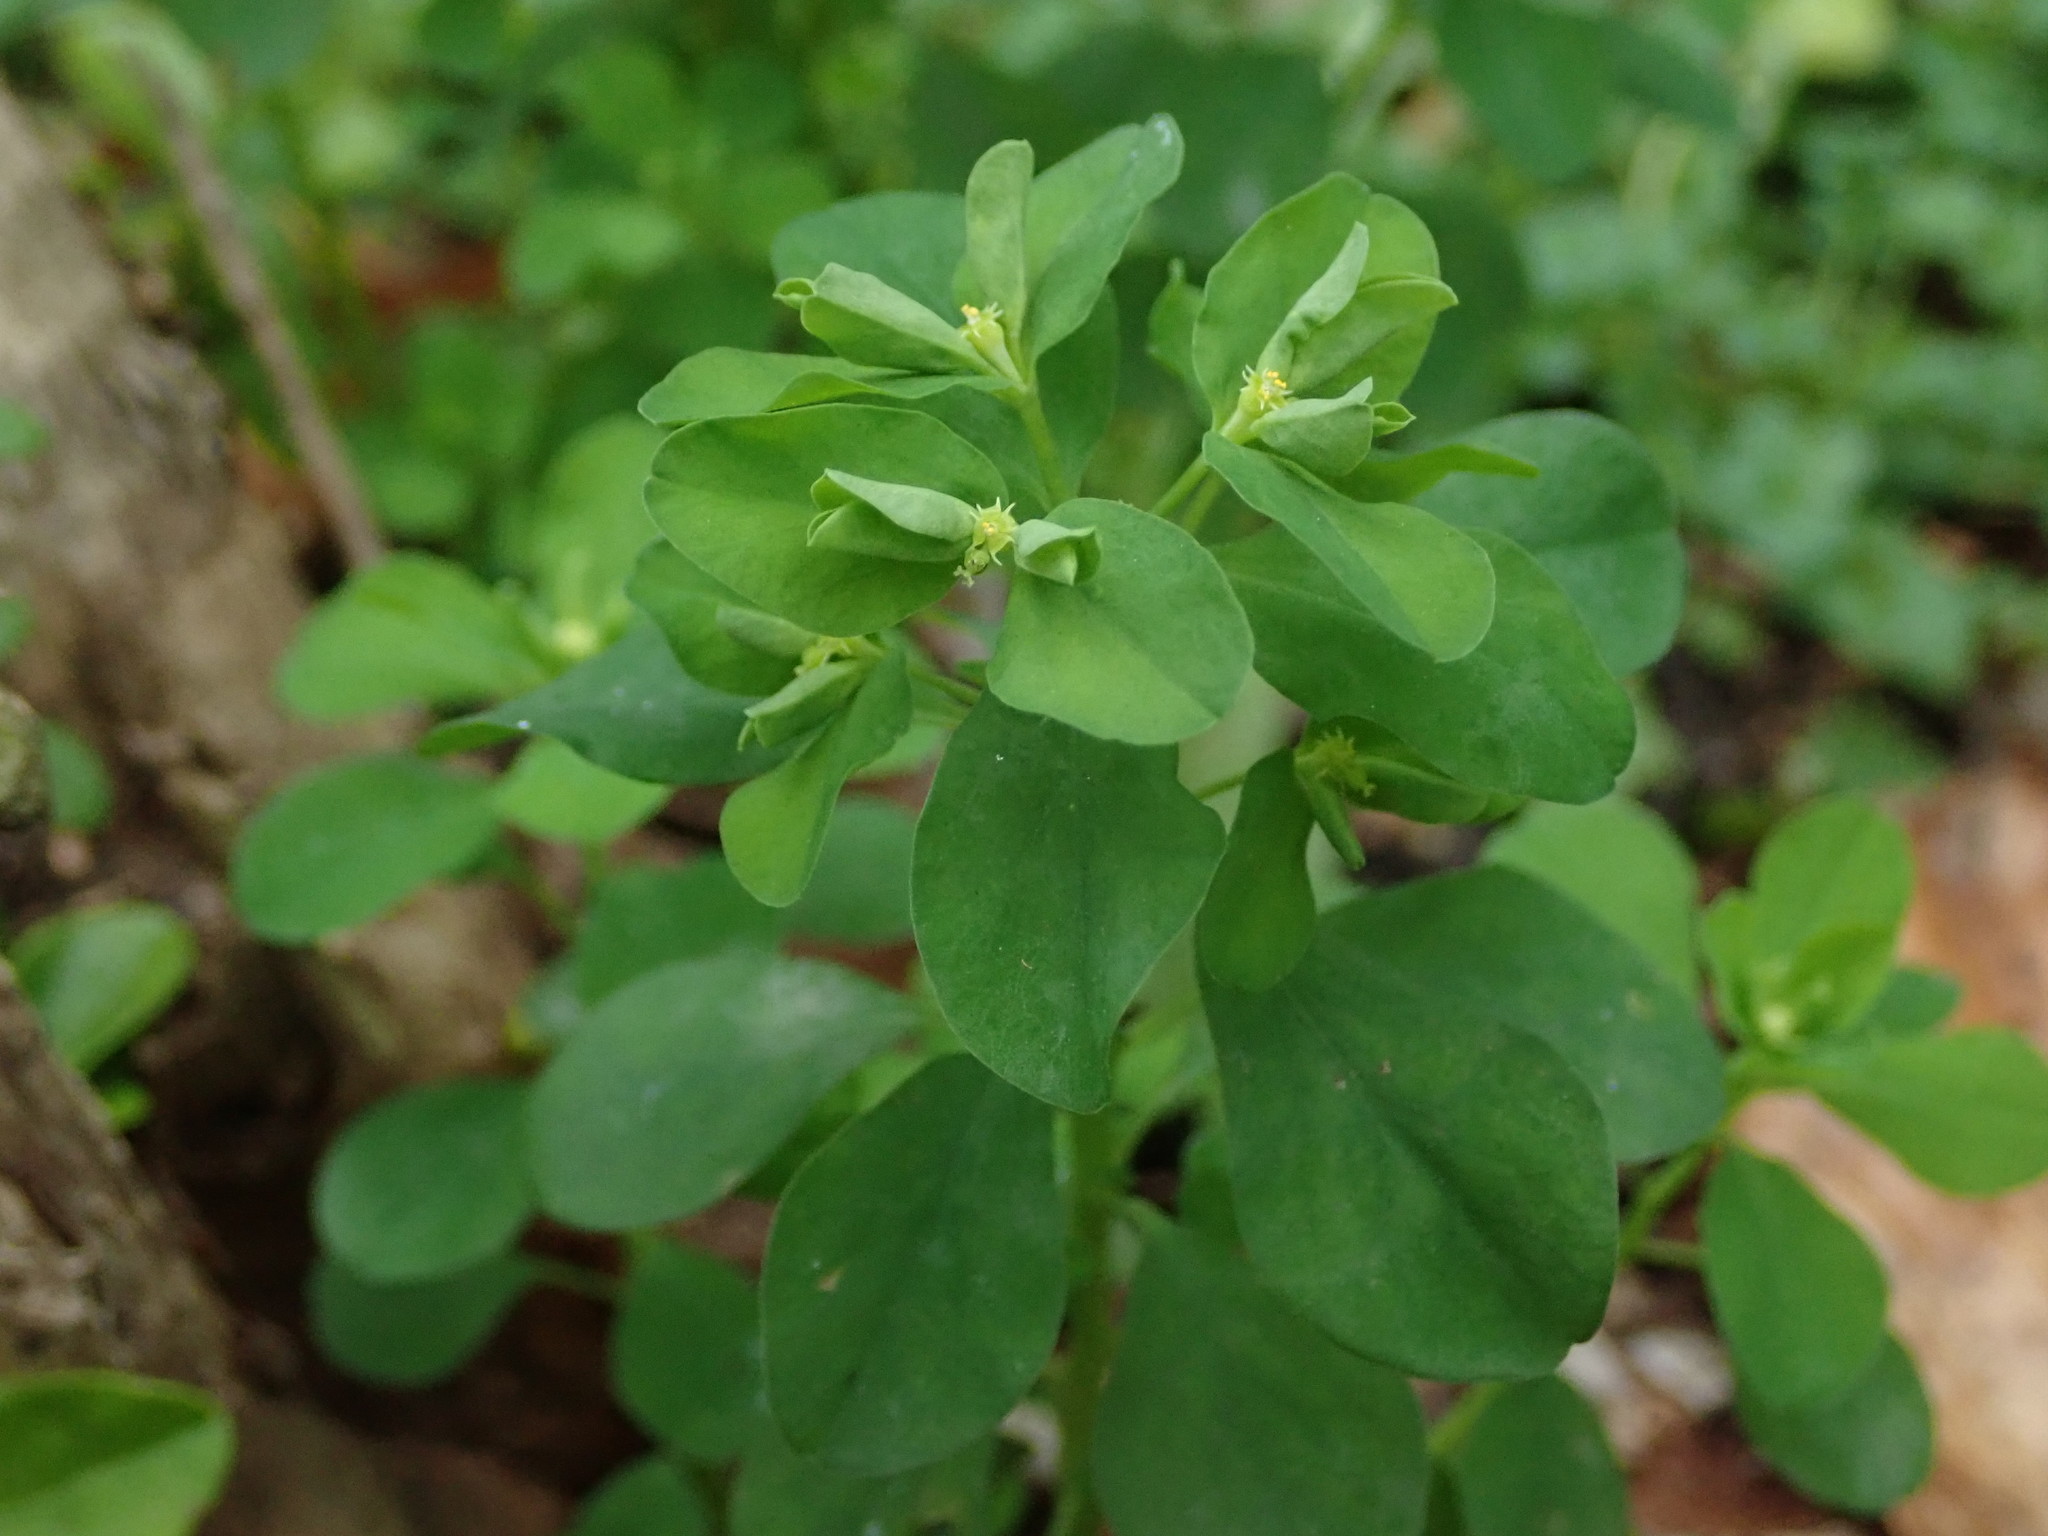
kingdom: Plantae
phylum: Tracheophyta
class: Magnoliopsida
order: Malpighiales
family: Euphorbiaceae
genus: Euphorbia
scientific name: Euphorbia peplus
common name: Petty spurge
